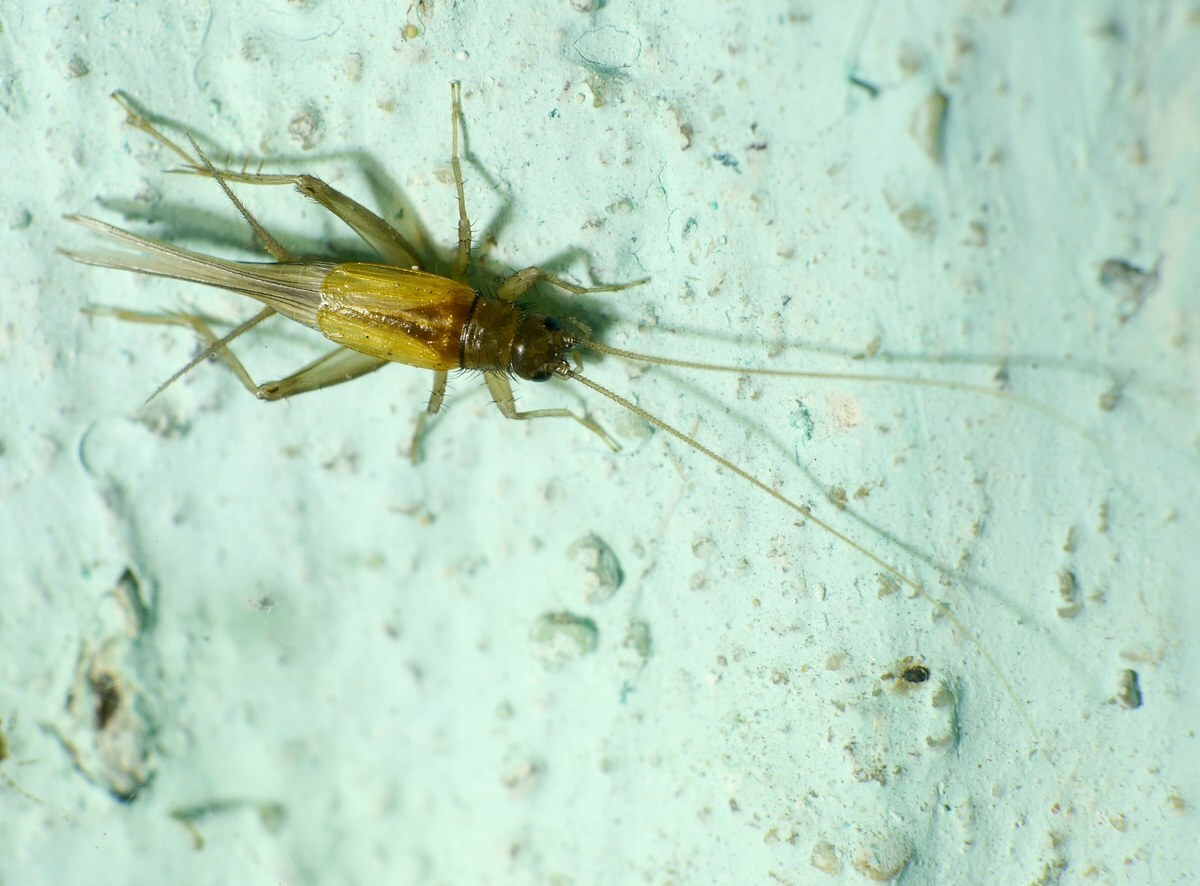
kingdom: Animalia
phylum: Arthropoda
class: Insecta
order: Orthoptera
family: Trigonidiidae
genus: Stenonemobius
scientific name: Stenonemobius bicolor
